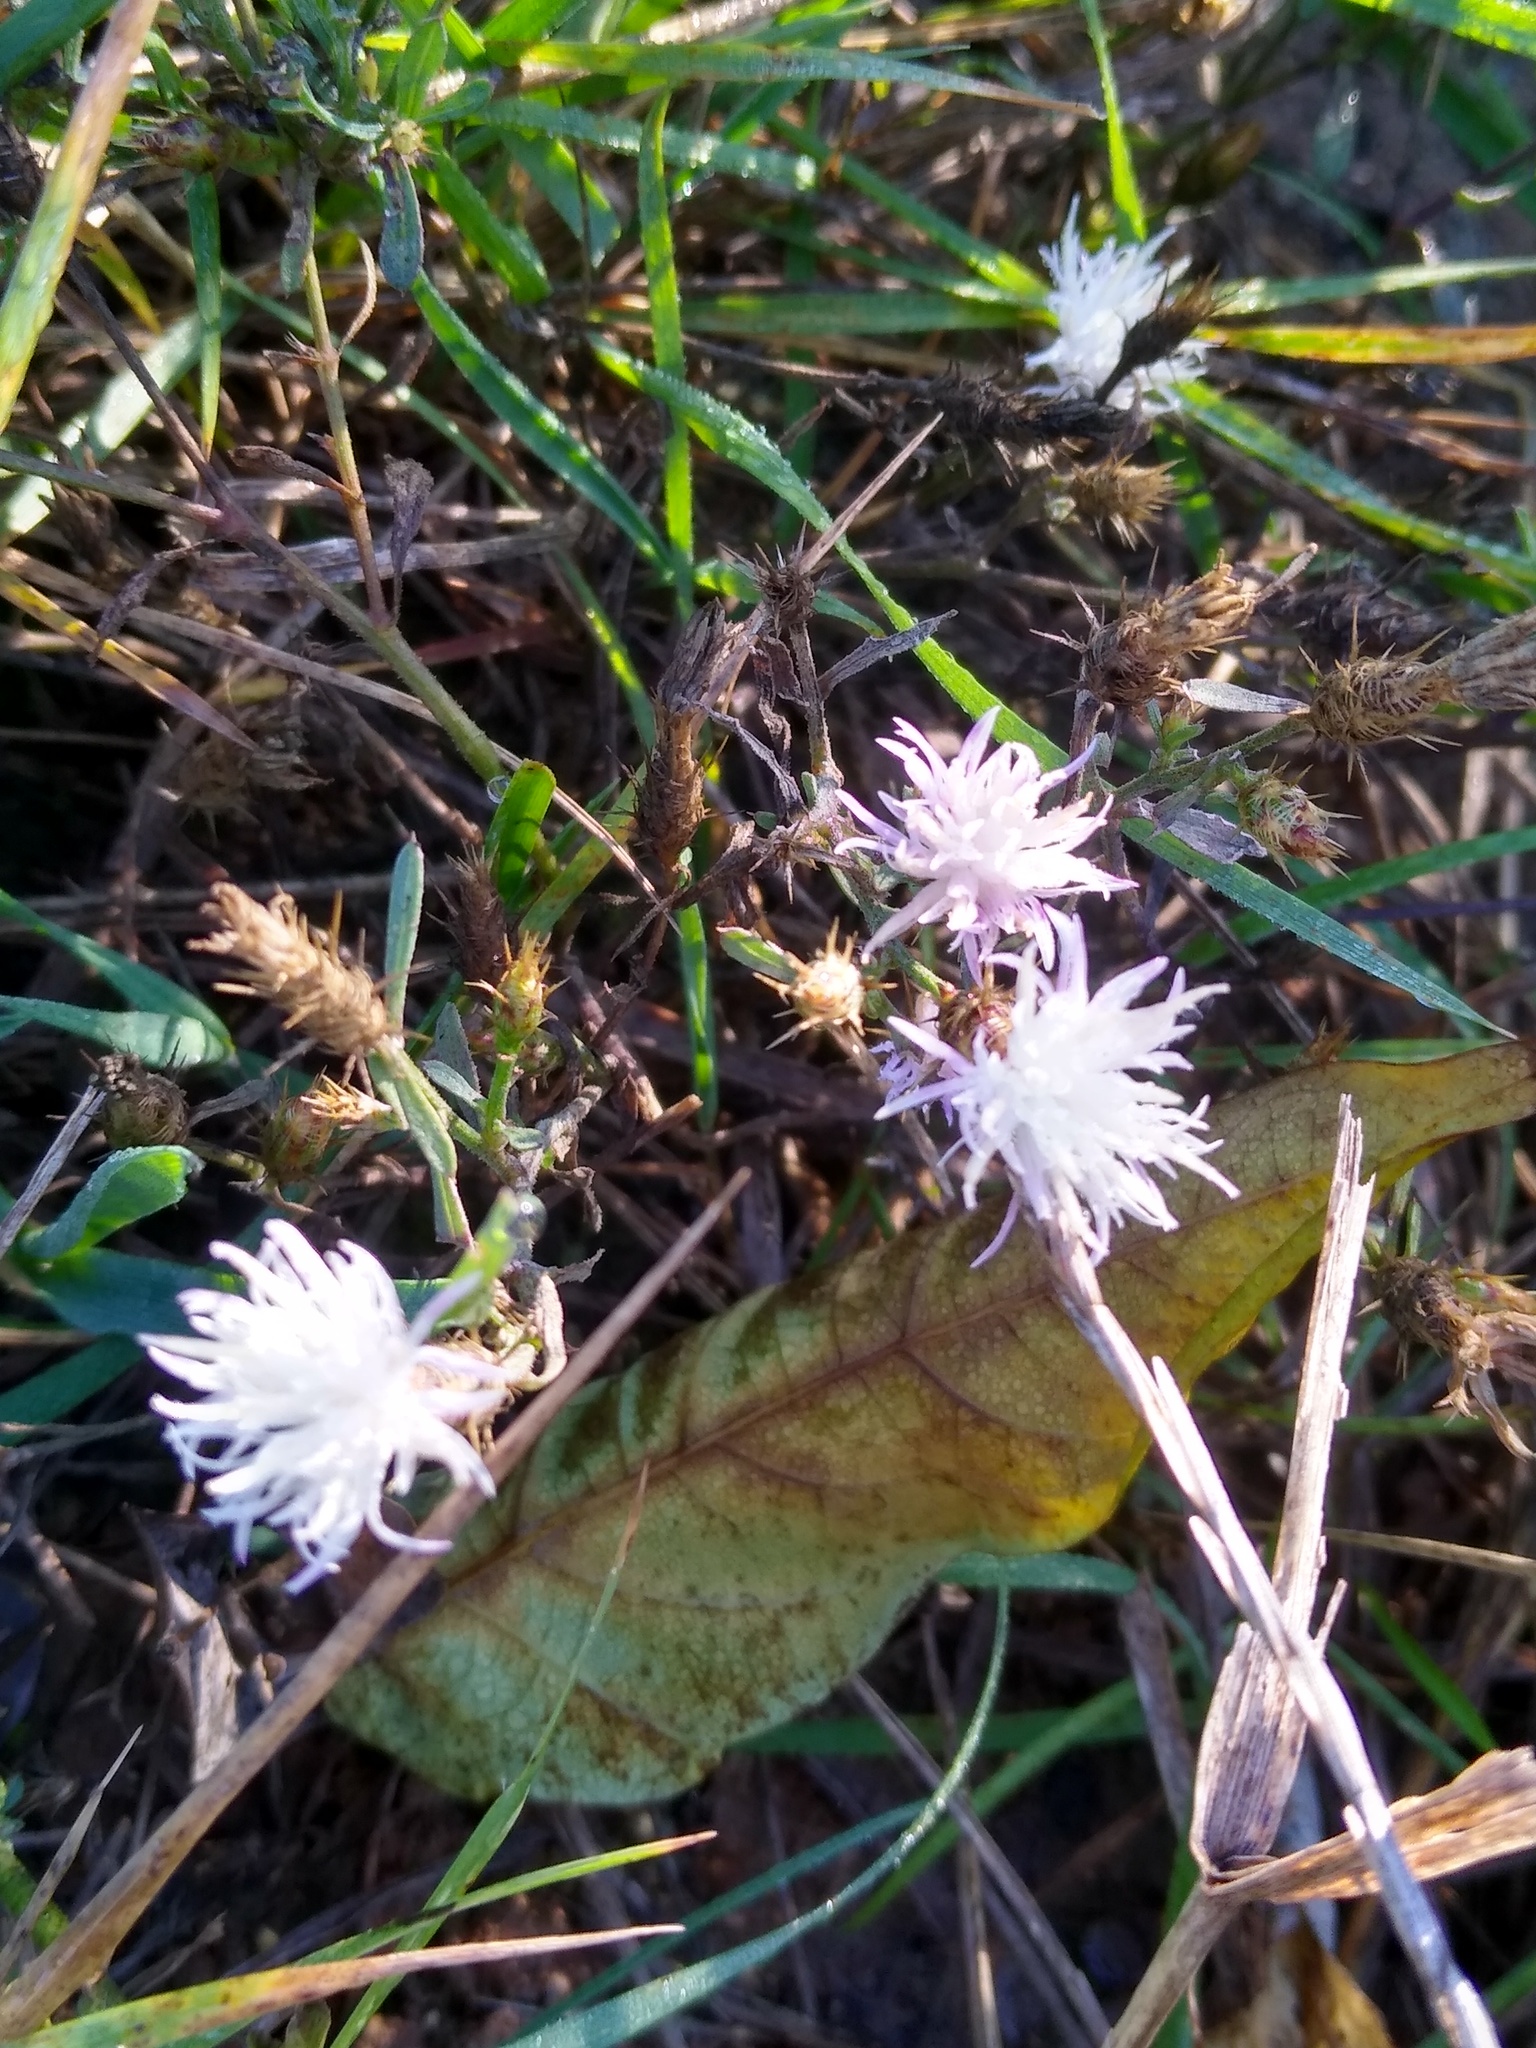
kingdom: Plantae
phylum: Tracheophyta
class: Magnoliopsida
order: Asterales
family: Asteraceae
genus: Centaurea
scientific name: Centaurea diffusa
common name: Diffuse knapweed
